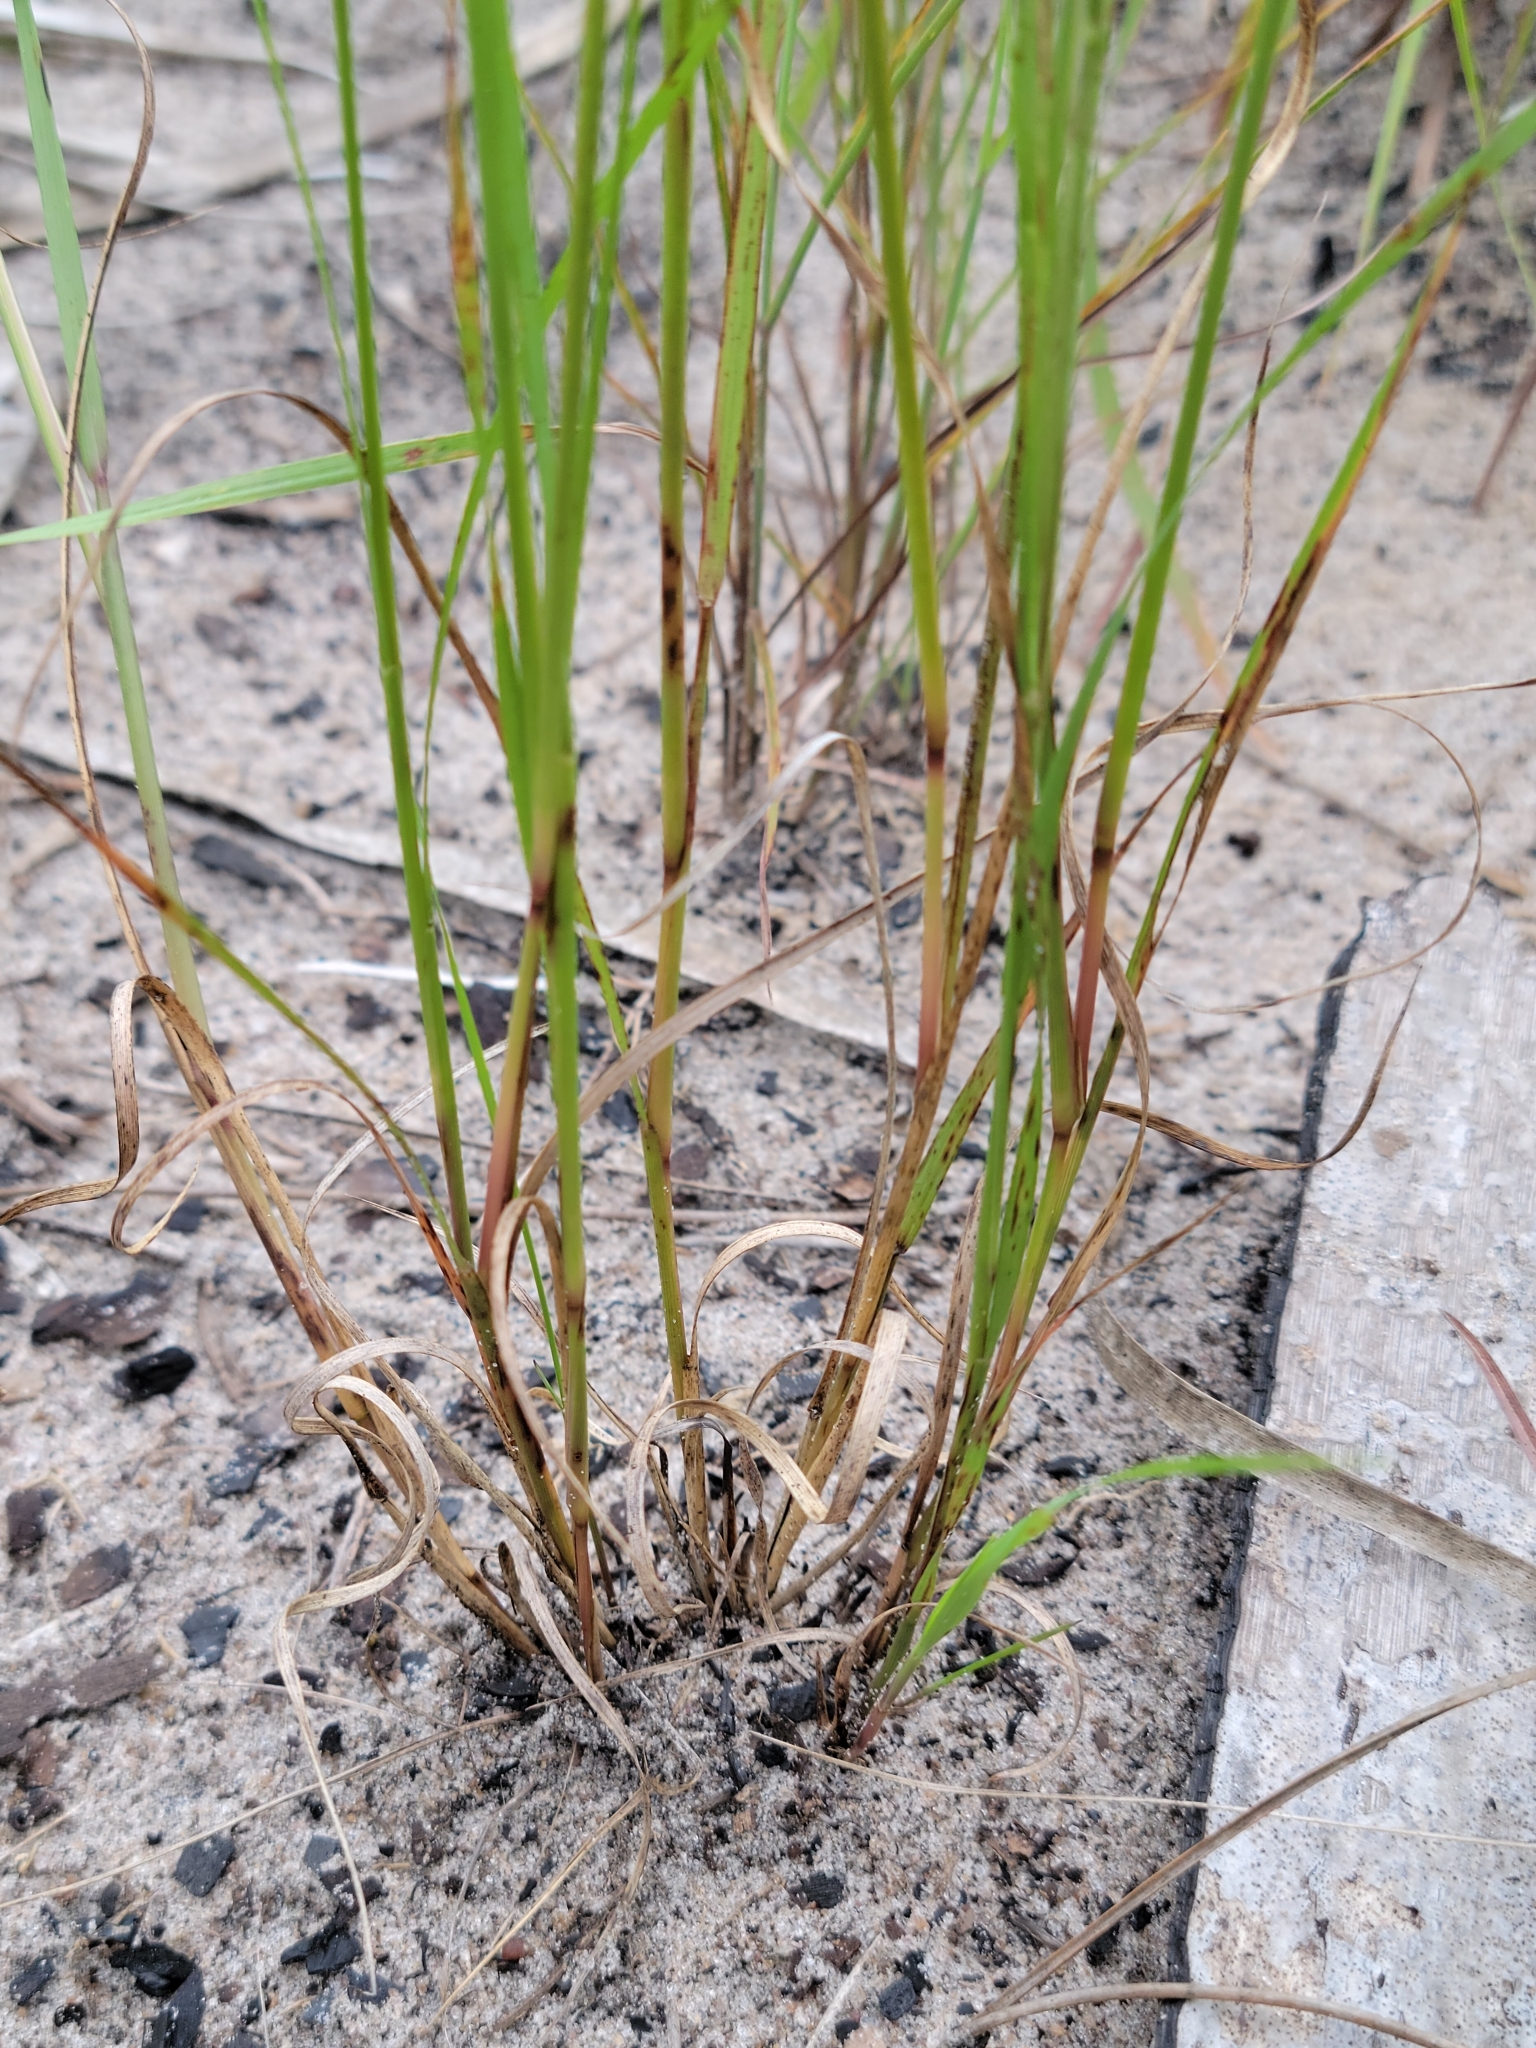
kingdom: Plantae
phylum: Tracheophyta
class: Liliopsida
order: Poales
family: Poaceae
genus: Aristida
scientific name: Aristida purpurascens
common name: Arrow-feather
